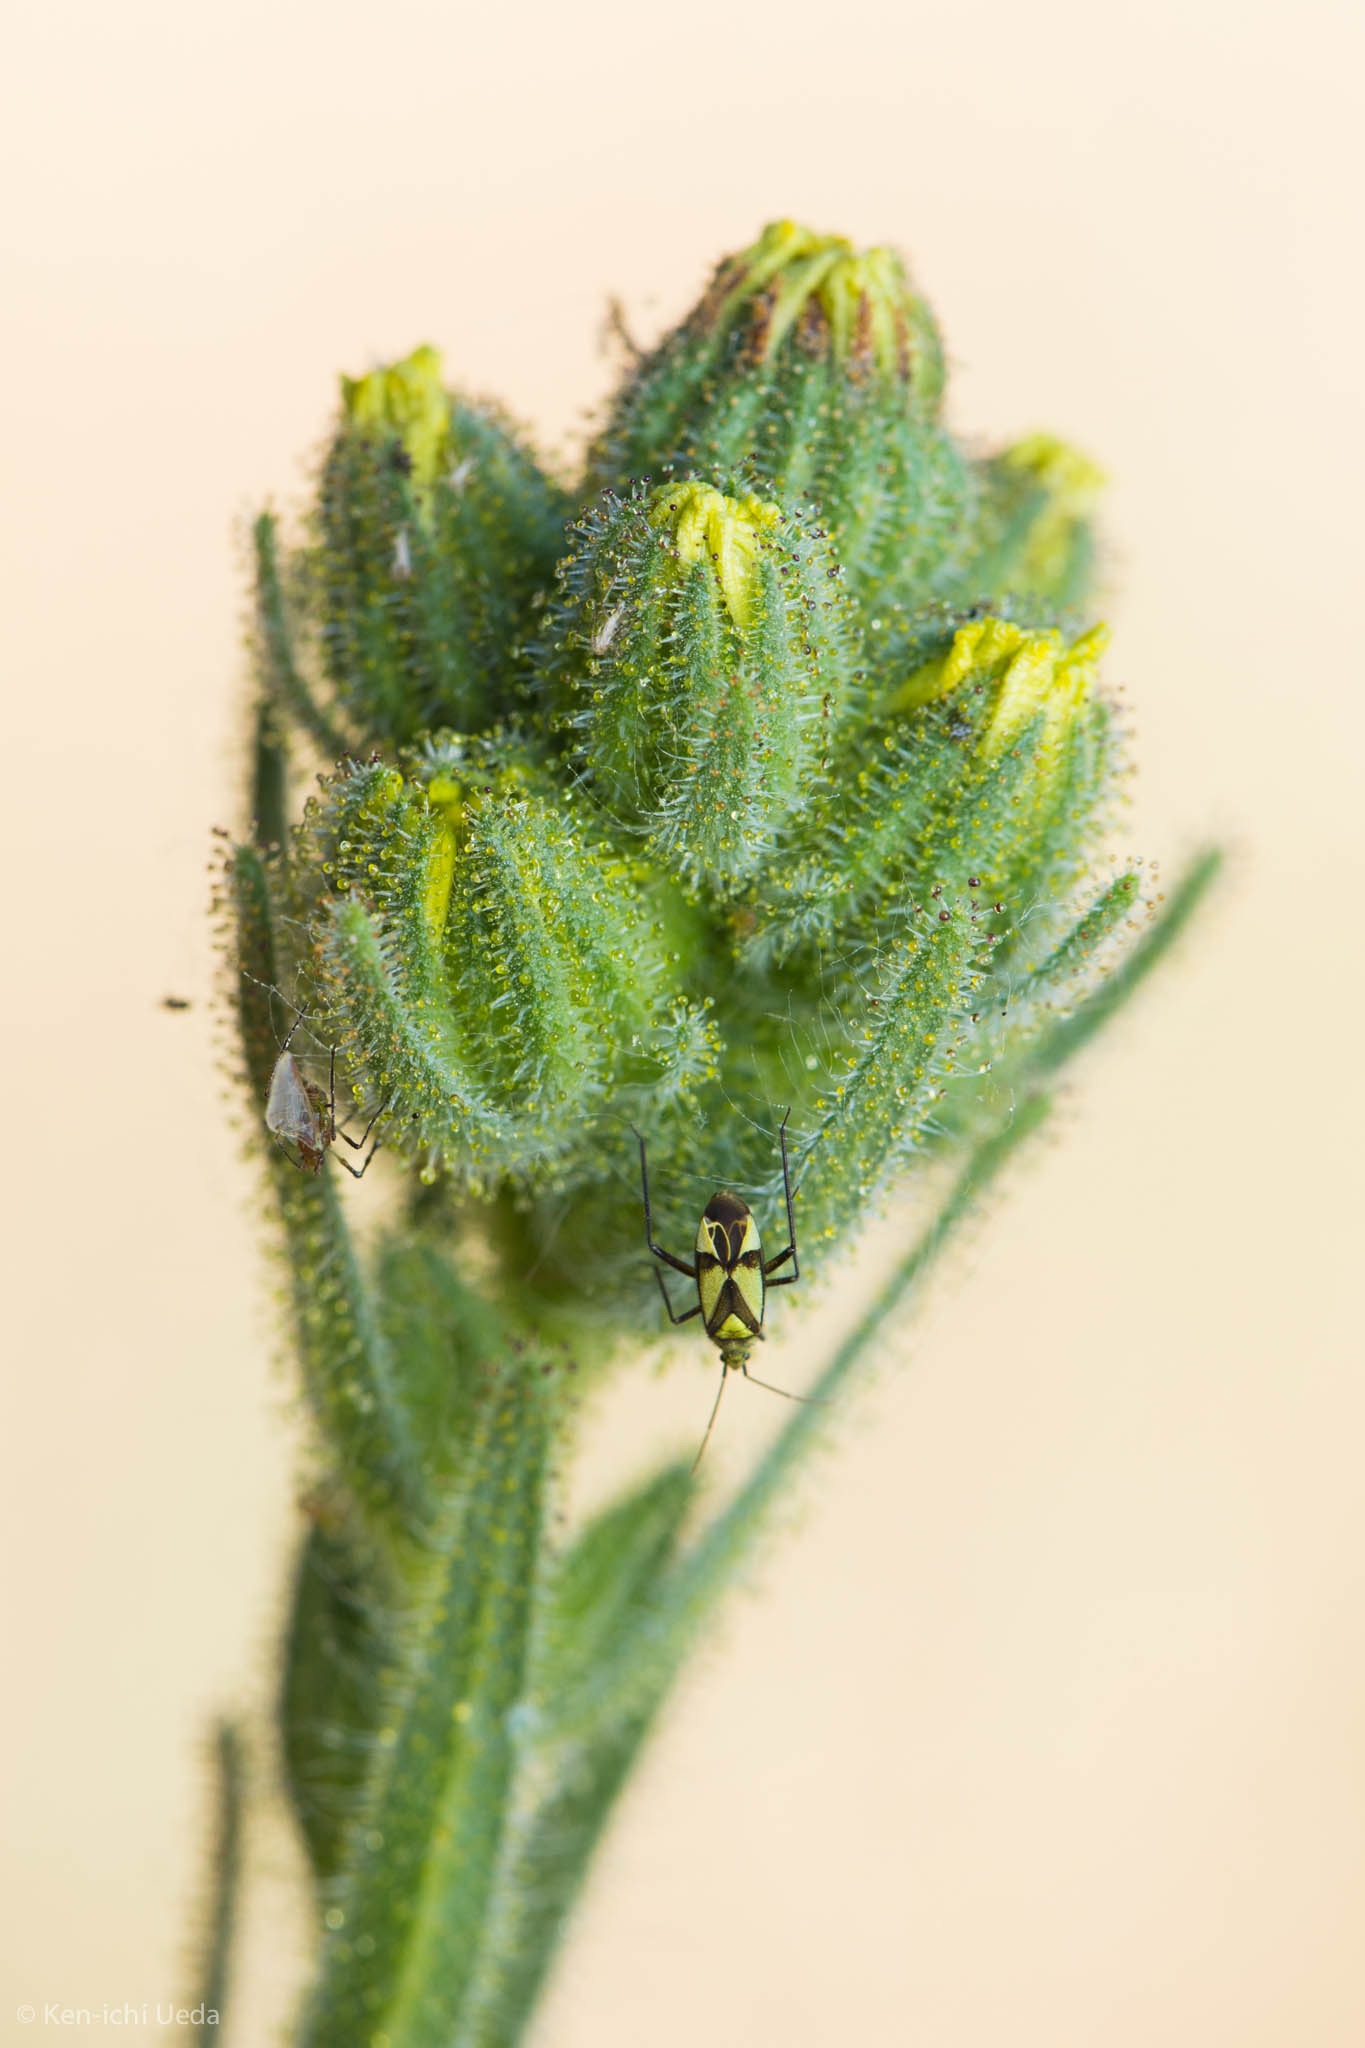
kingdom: Plantae
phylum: Tracheophyta
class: Magnoliopsida
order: Asterales
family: Asteraceae
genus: Madia
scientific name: Madia sativa
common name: Coast tarweed
